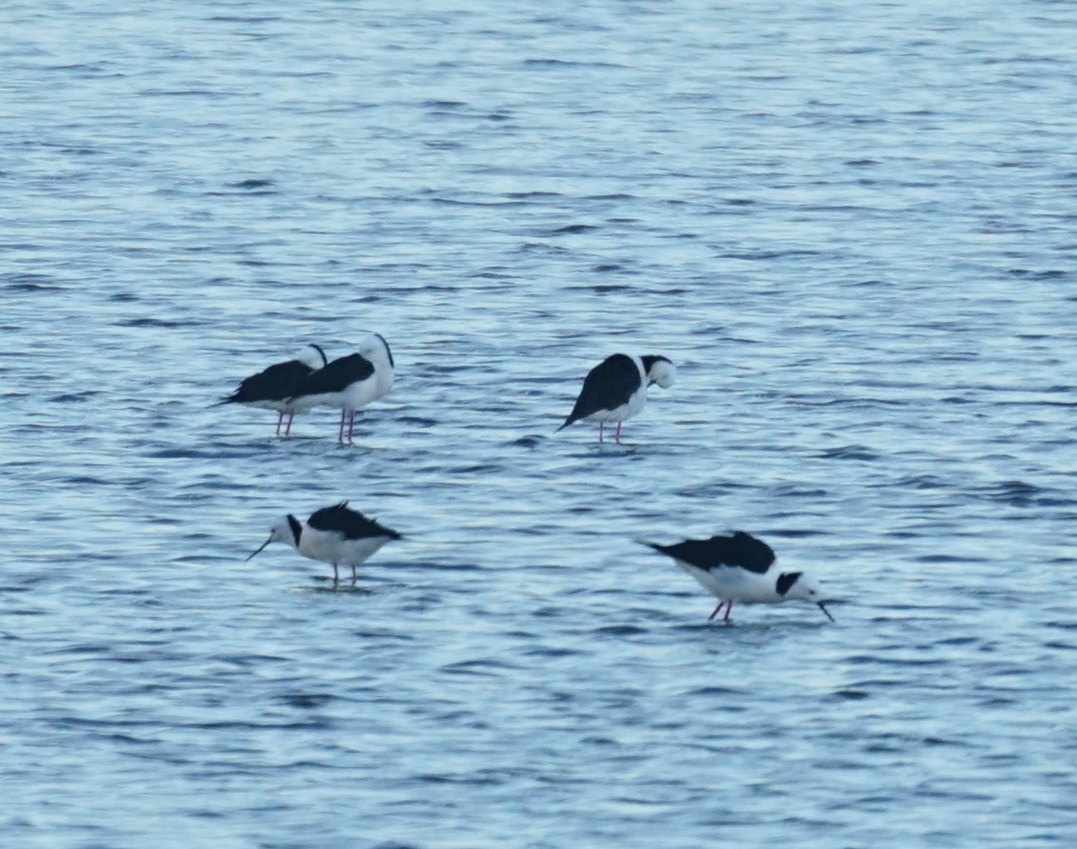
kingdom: Animalia
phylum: Chordata
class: Aves
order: Charadriiformes
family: Recurvirostridae
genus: Himantopus
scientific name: Himantopus leucocephalus
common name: White-headed stilt
